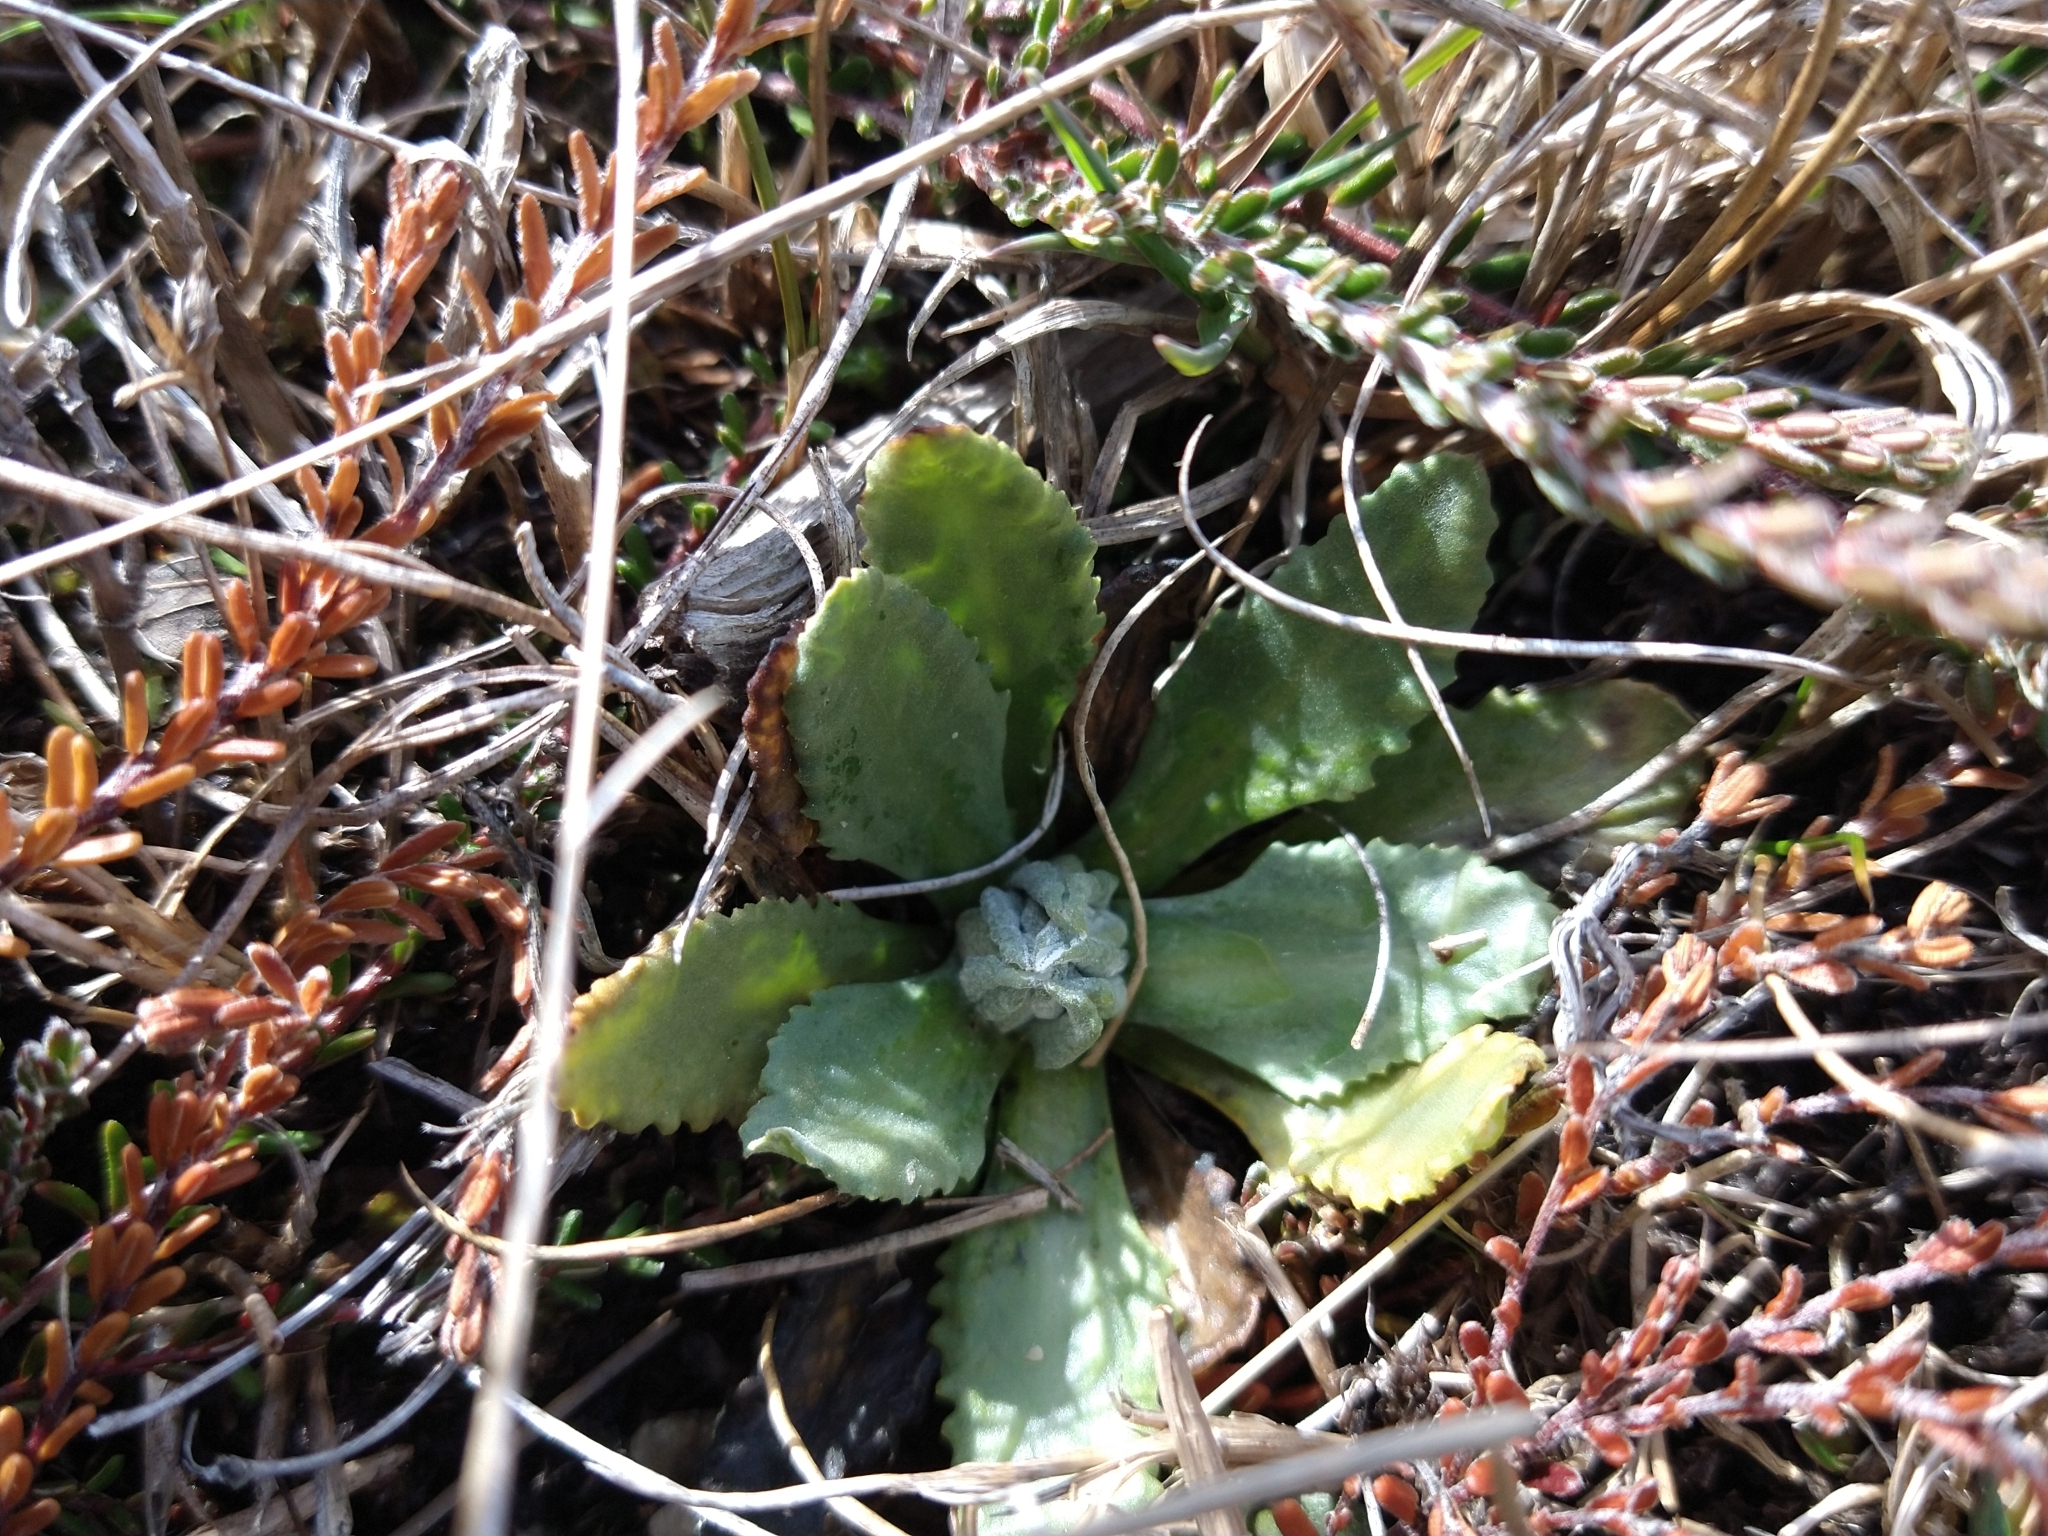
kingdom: Plantae
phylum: Tracheophyta
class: Magnoliopsida
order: Ericales
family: Primulaceae
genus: Primula
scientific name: Primula magellanica
